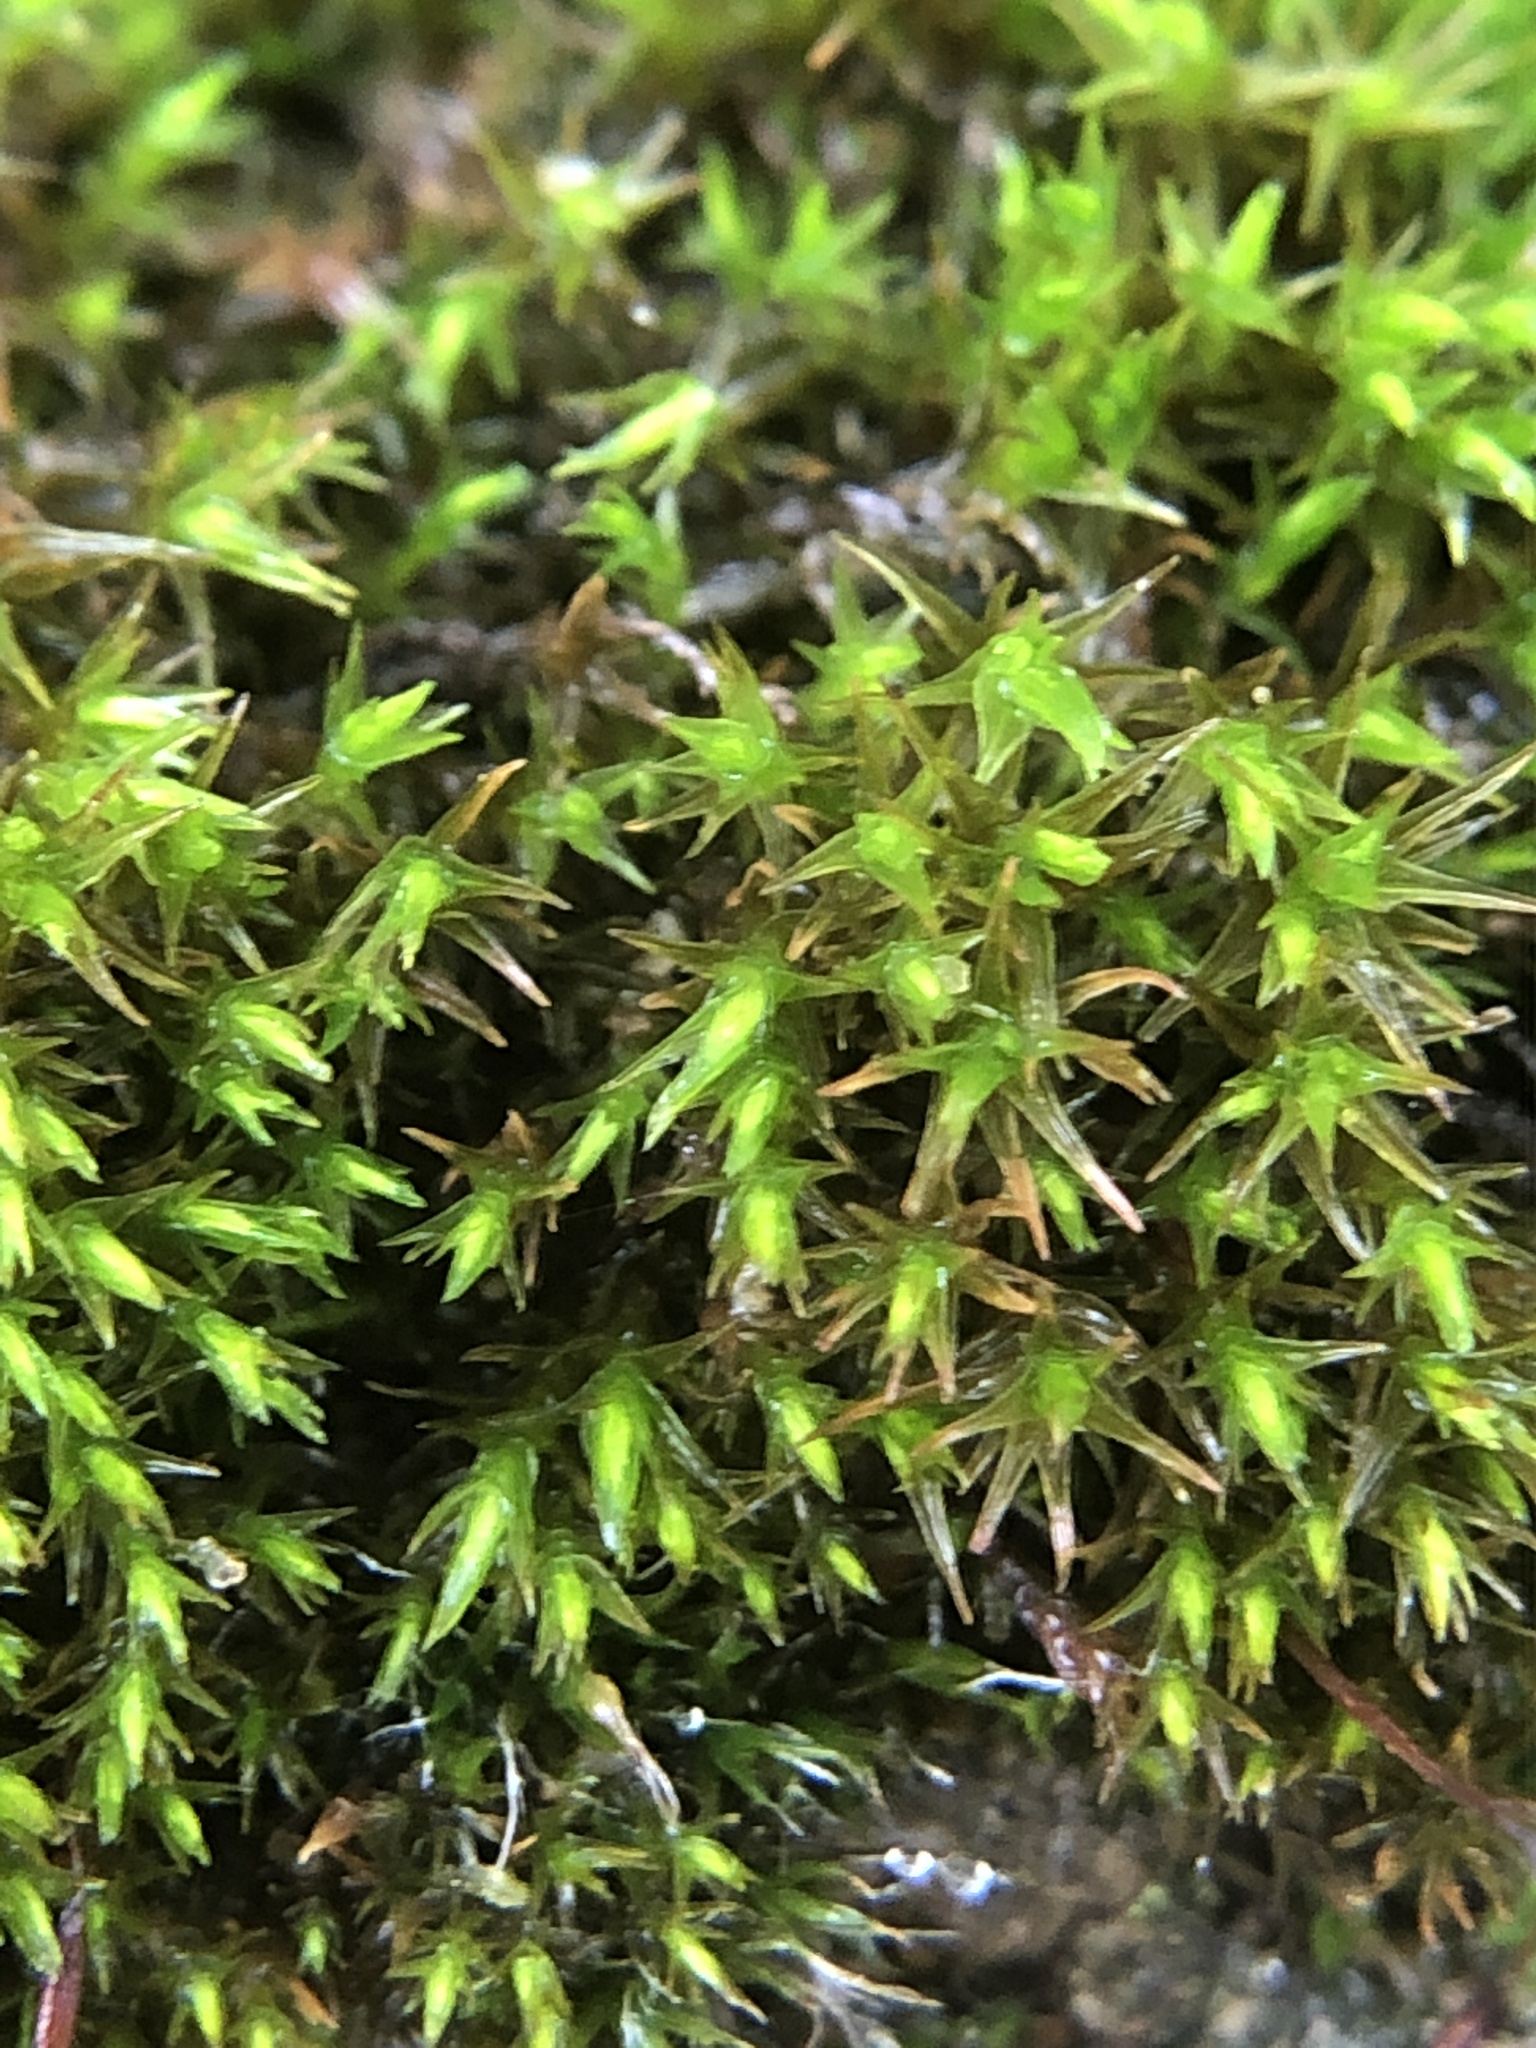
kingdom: Plantae
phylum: Bryophyta
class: Bryopsida
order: Pottiales
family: Pottiaceae
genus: Didymodon
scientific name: Didymodon rigidulus
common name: Rigid beard-moss
